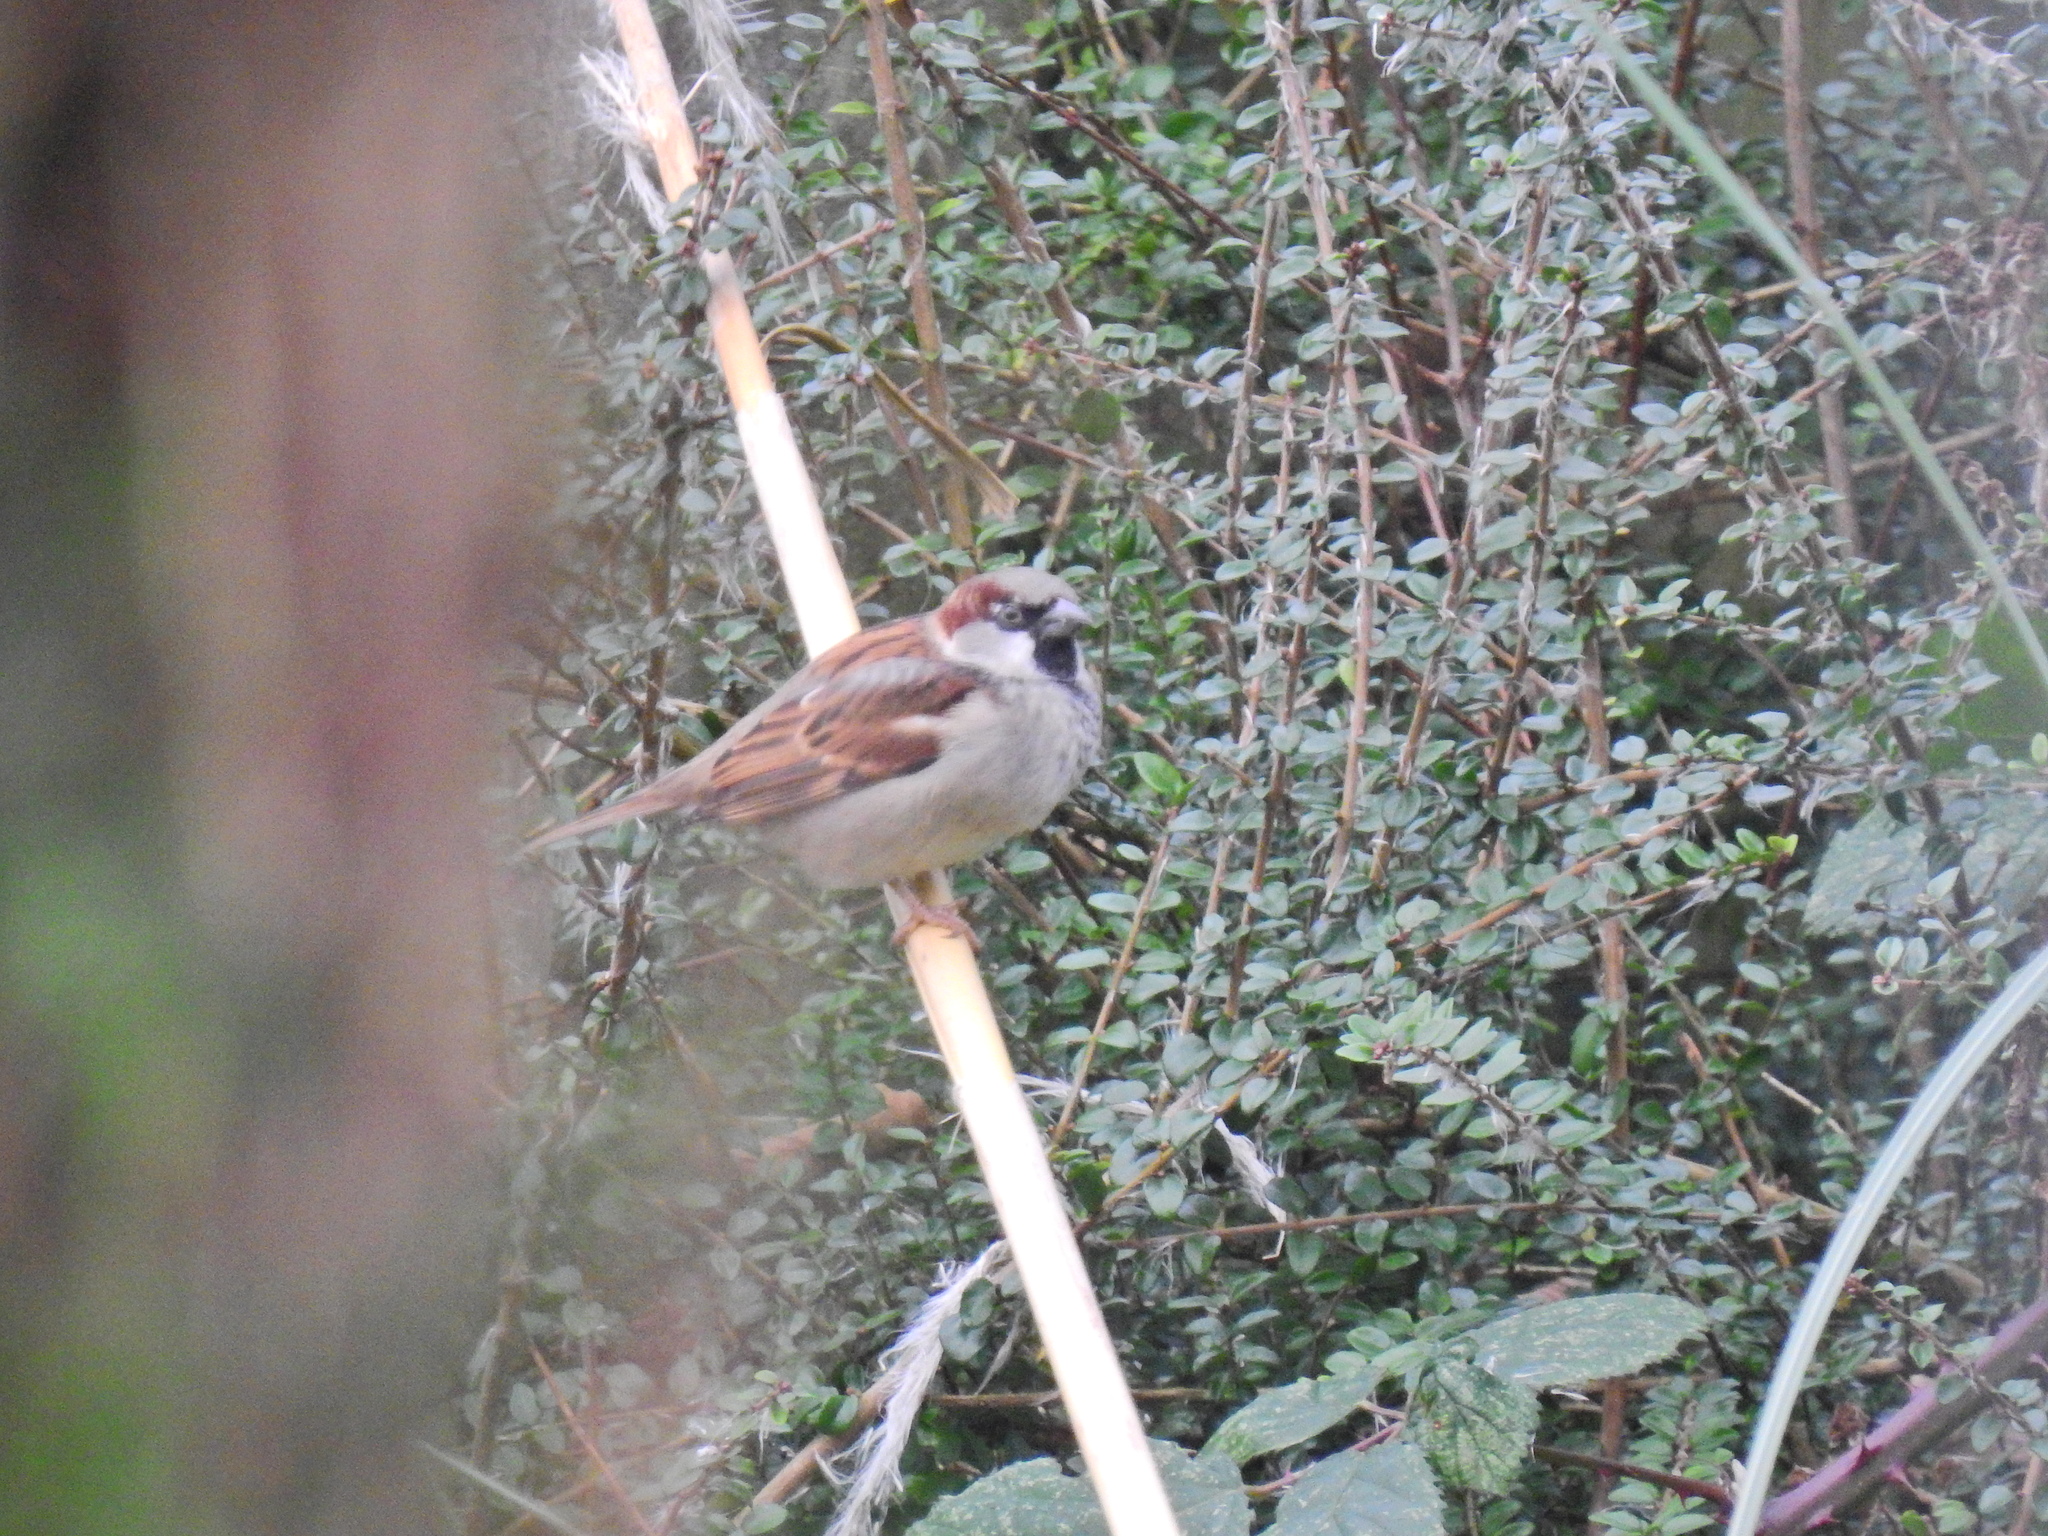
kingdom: Animalia
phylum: Chordata
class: Aves
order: Passeriformes
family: Passeridae
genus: Passer
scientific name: Passer domesticus
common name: House sparrow
